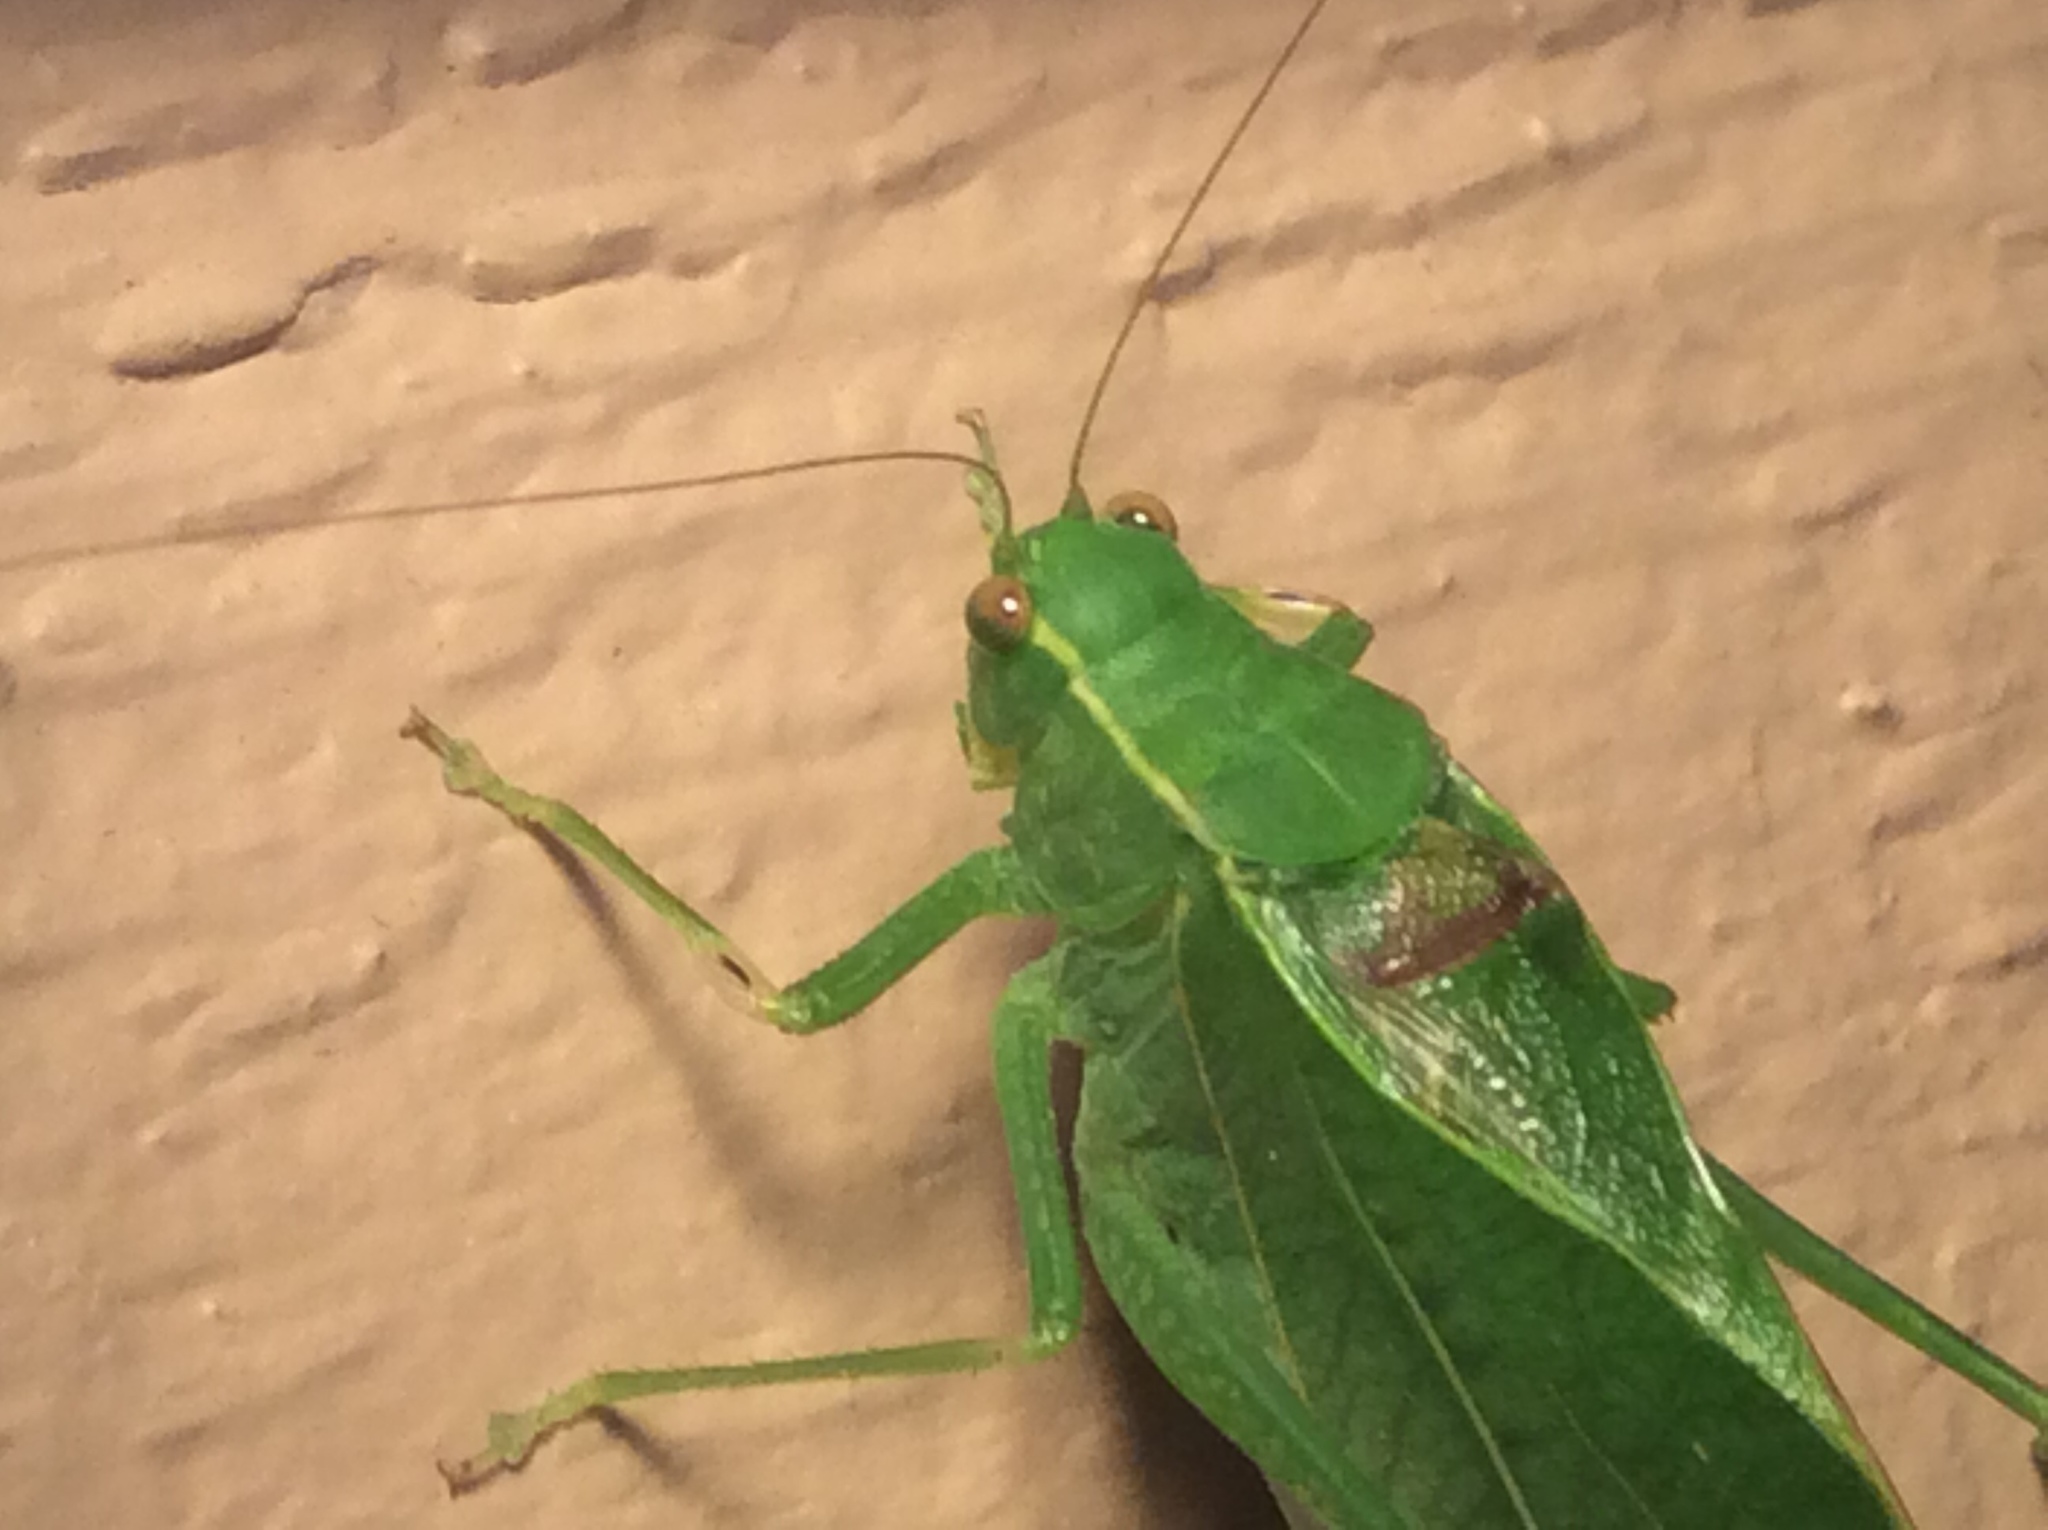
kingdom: Animalia
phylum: Arthropoda
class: Insecta
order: Orthoptera
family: Tettigoniidae
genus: Microcentrum
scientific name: Microcentrum retinerve
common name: Angular-winged katydid
